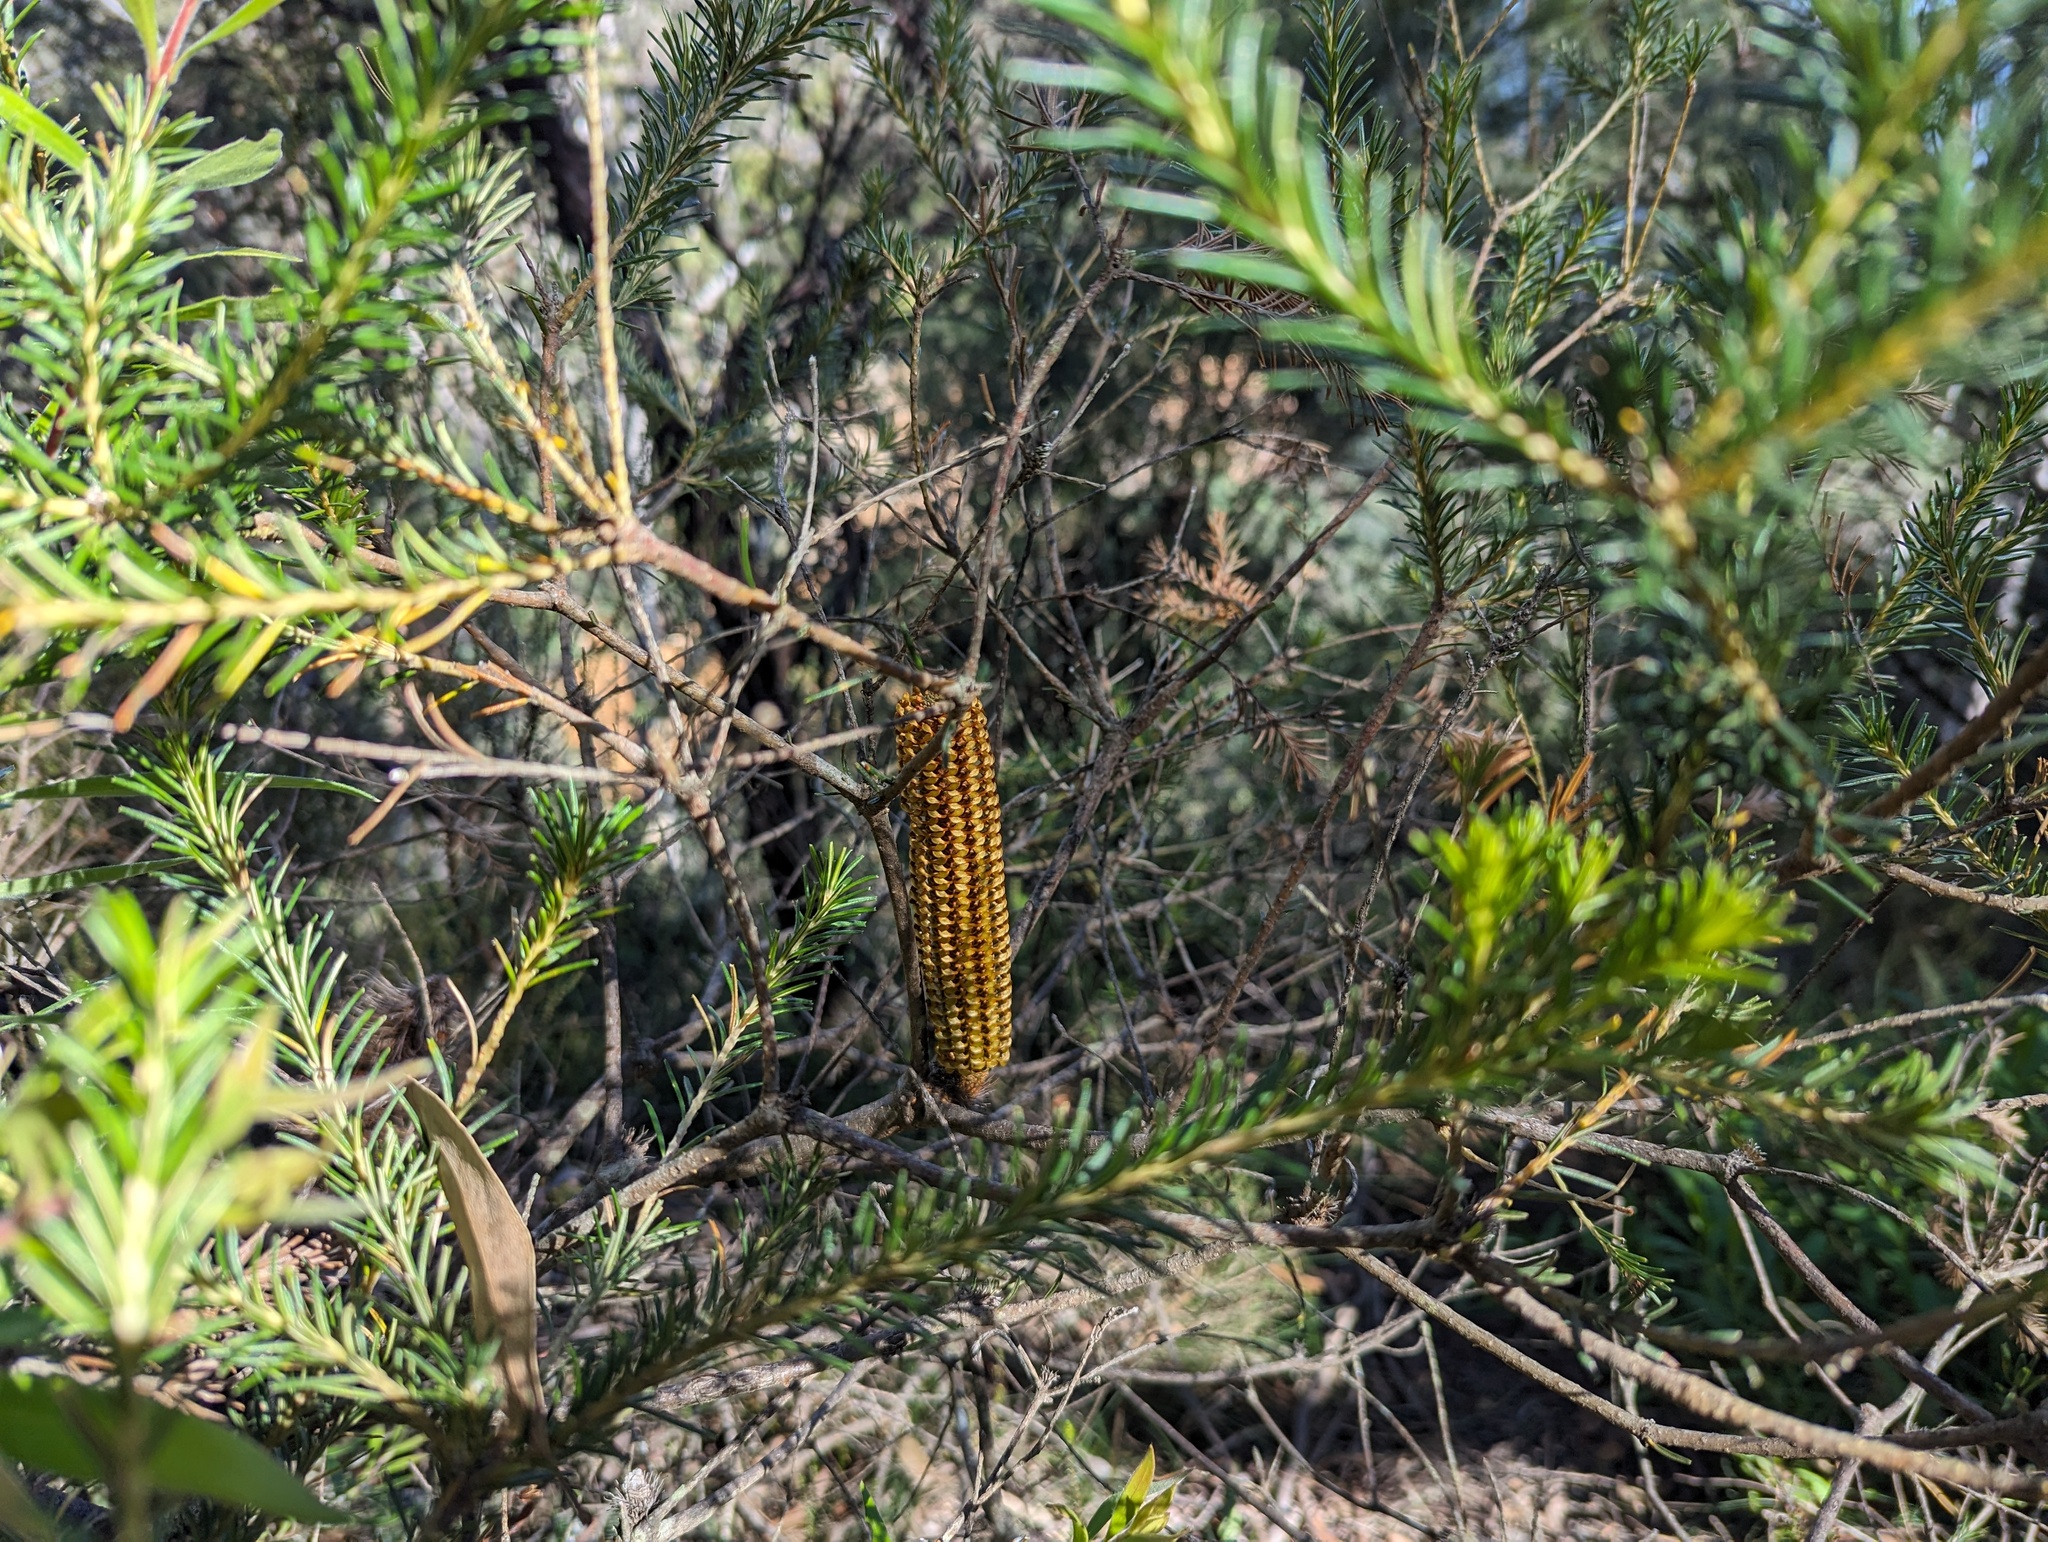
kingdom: Plantae
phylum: Tracheophyta
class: Magnoliopsida
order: Proteales
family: Proteaceae
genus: Banksia
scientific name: Banksia ericifolia
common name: Heath-leaf banksia
